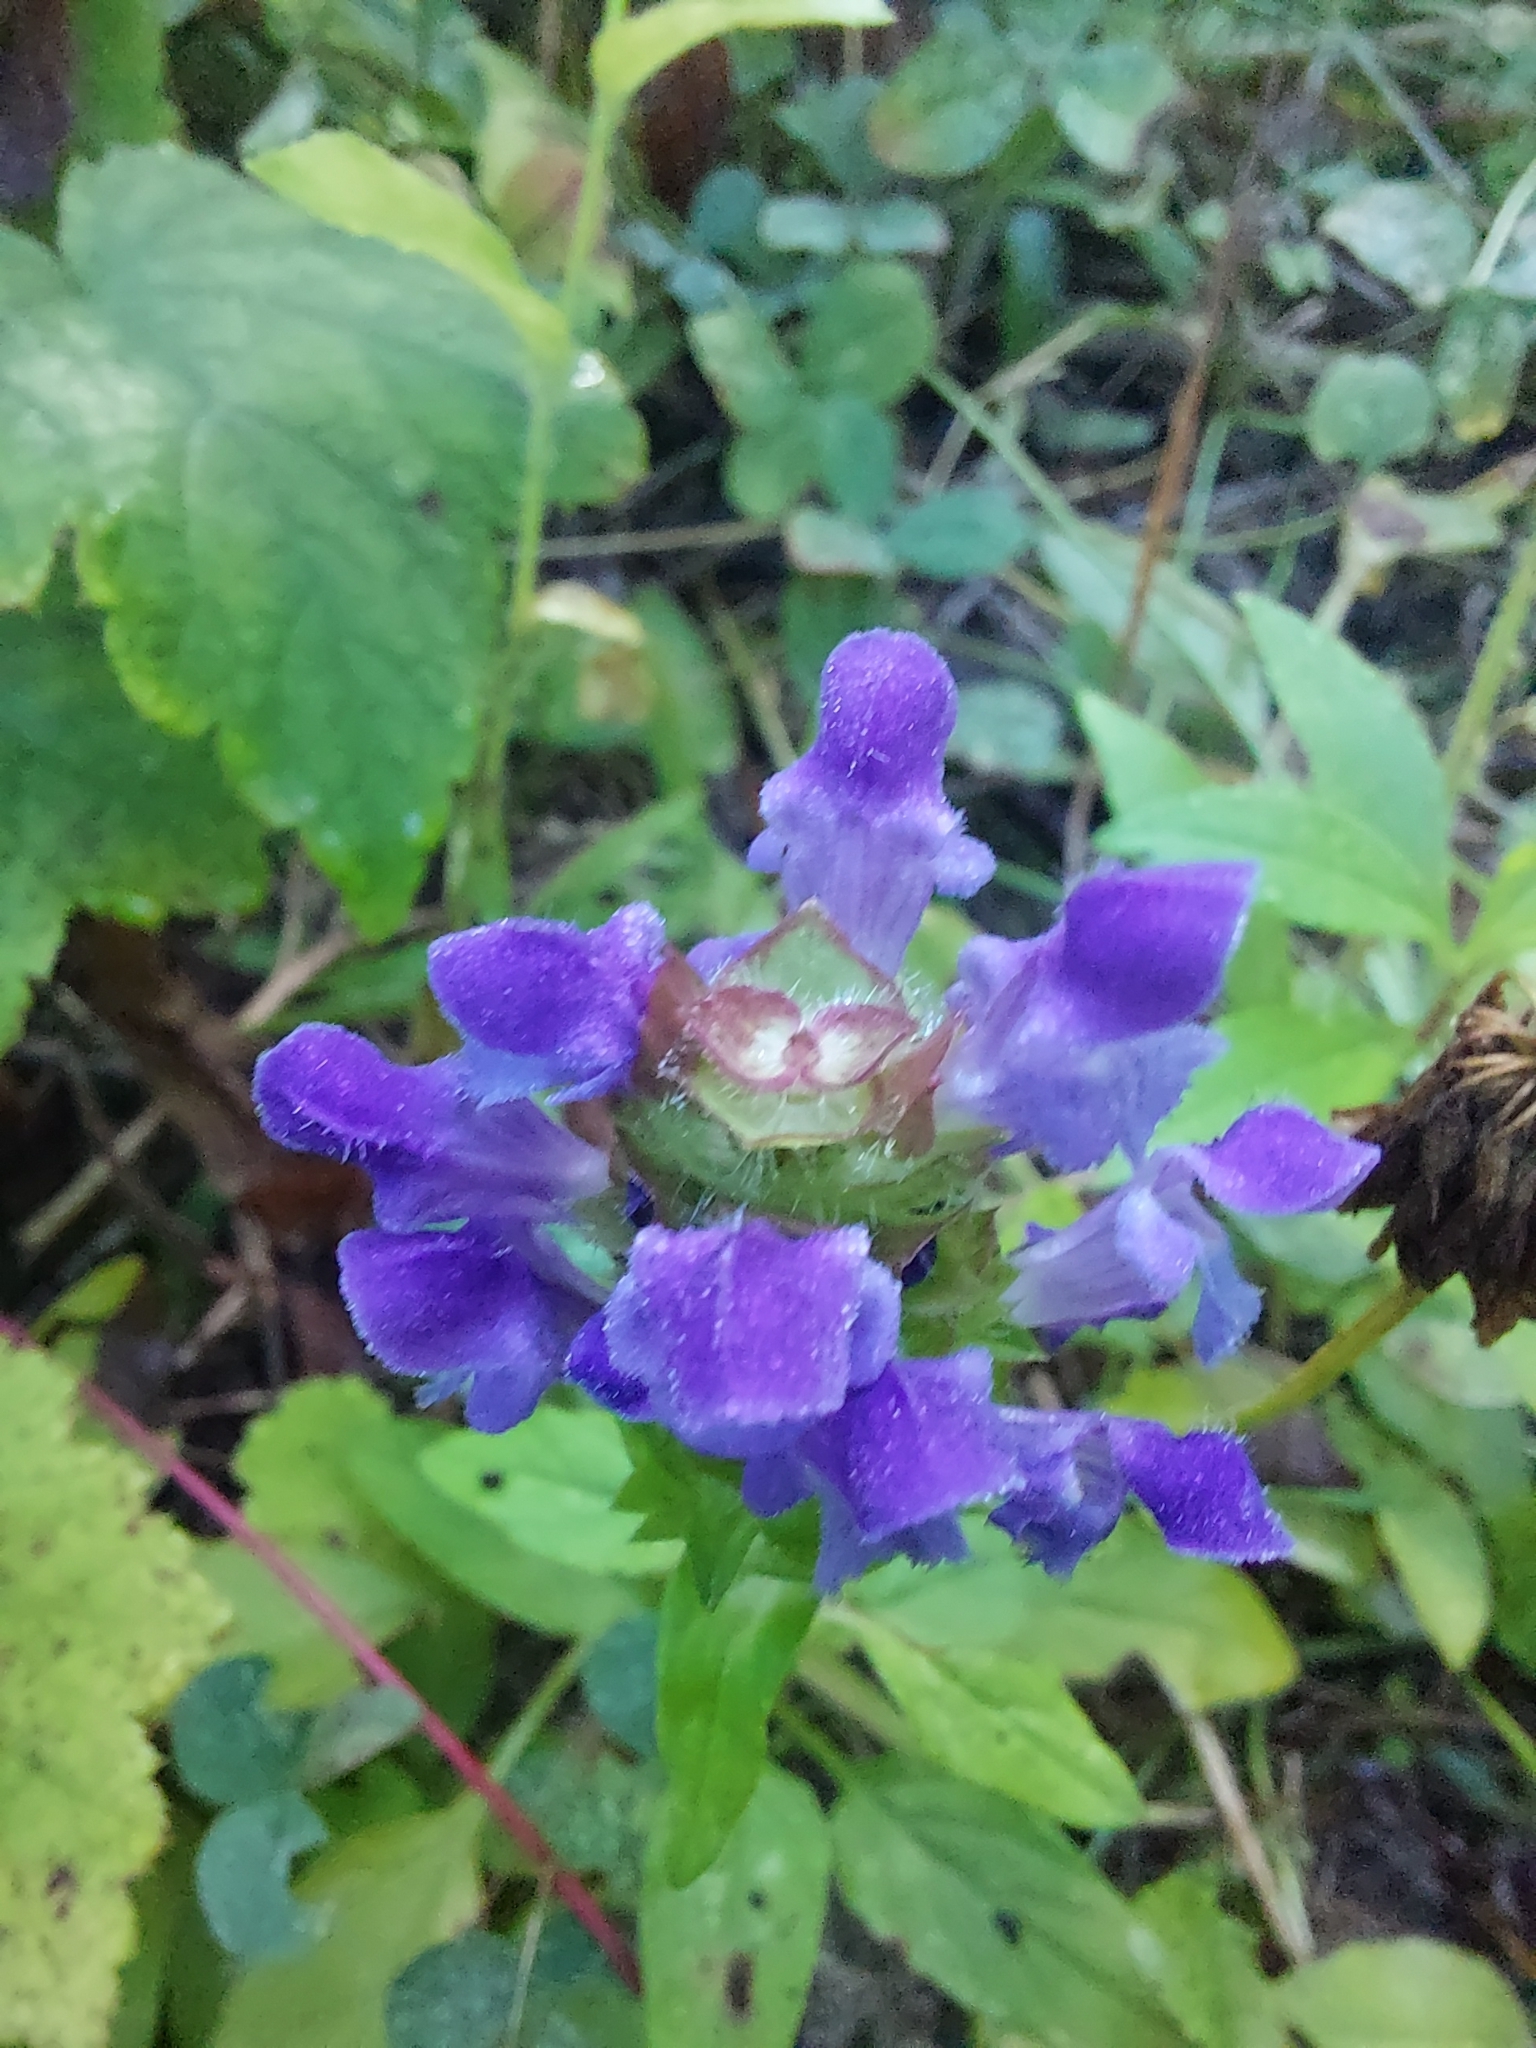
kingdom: Plantae
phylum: Tracheophyta
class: Magnoliopsida
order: Lamiales
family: Lamiaceae
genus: Prunella
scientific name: Prunella vulgaris
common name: Heal-all
